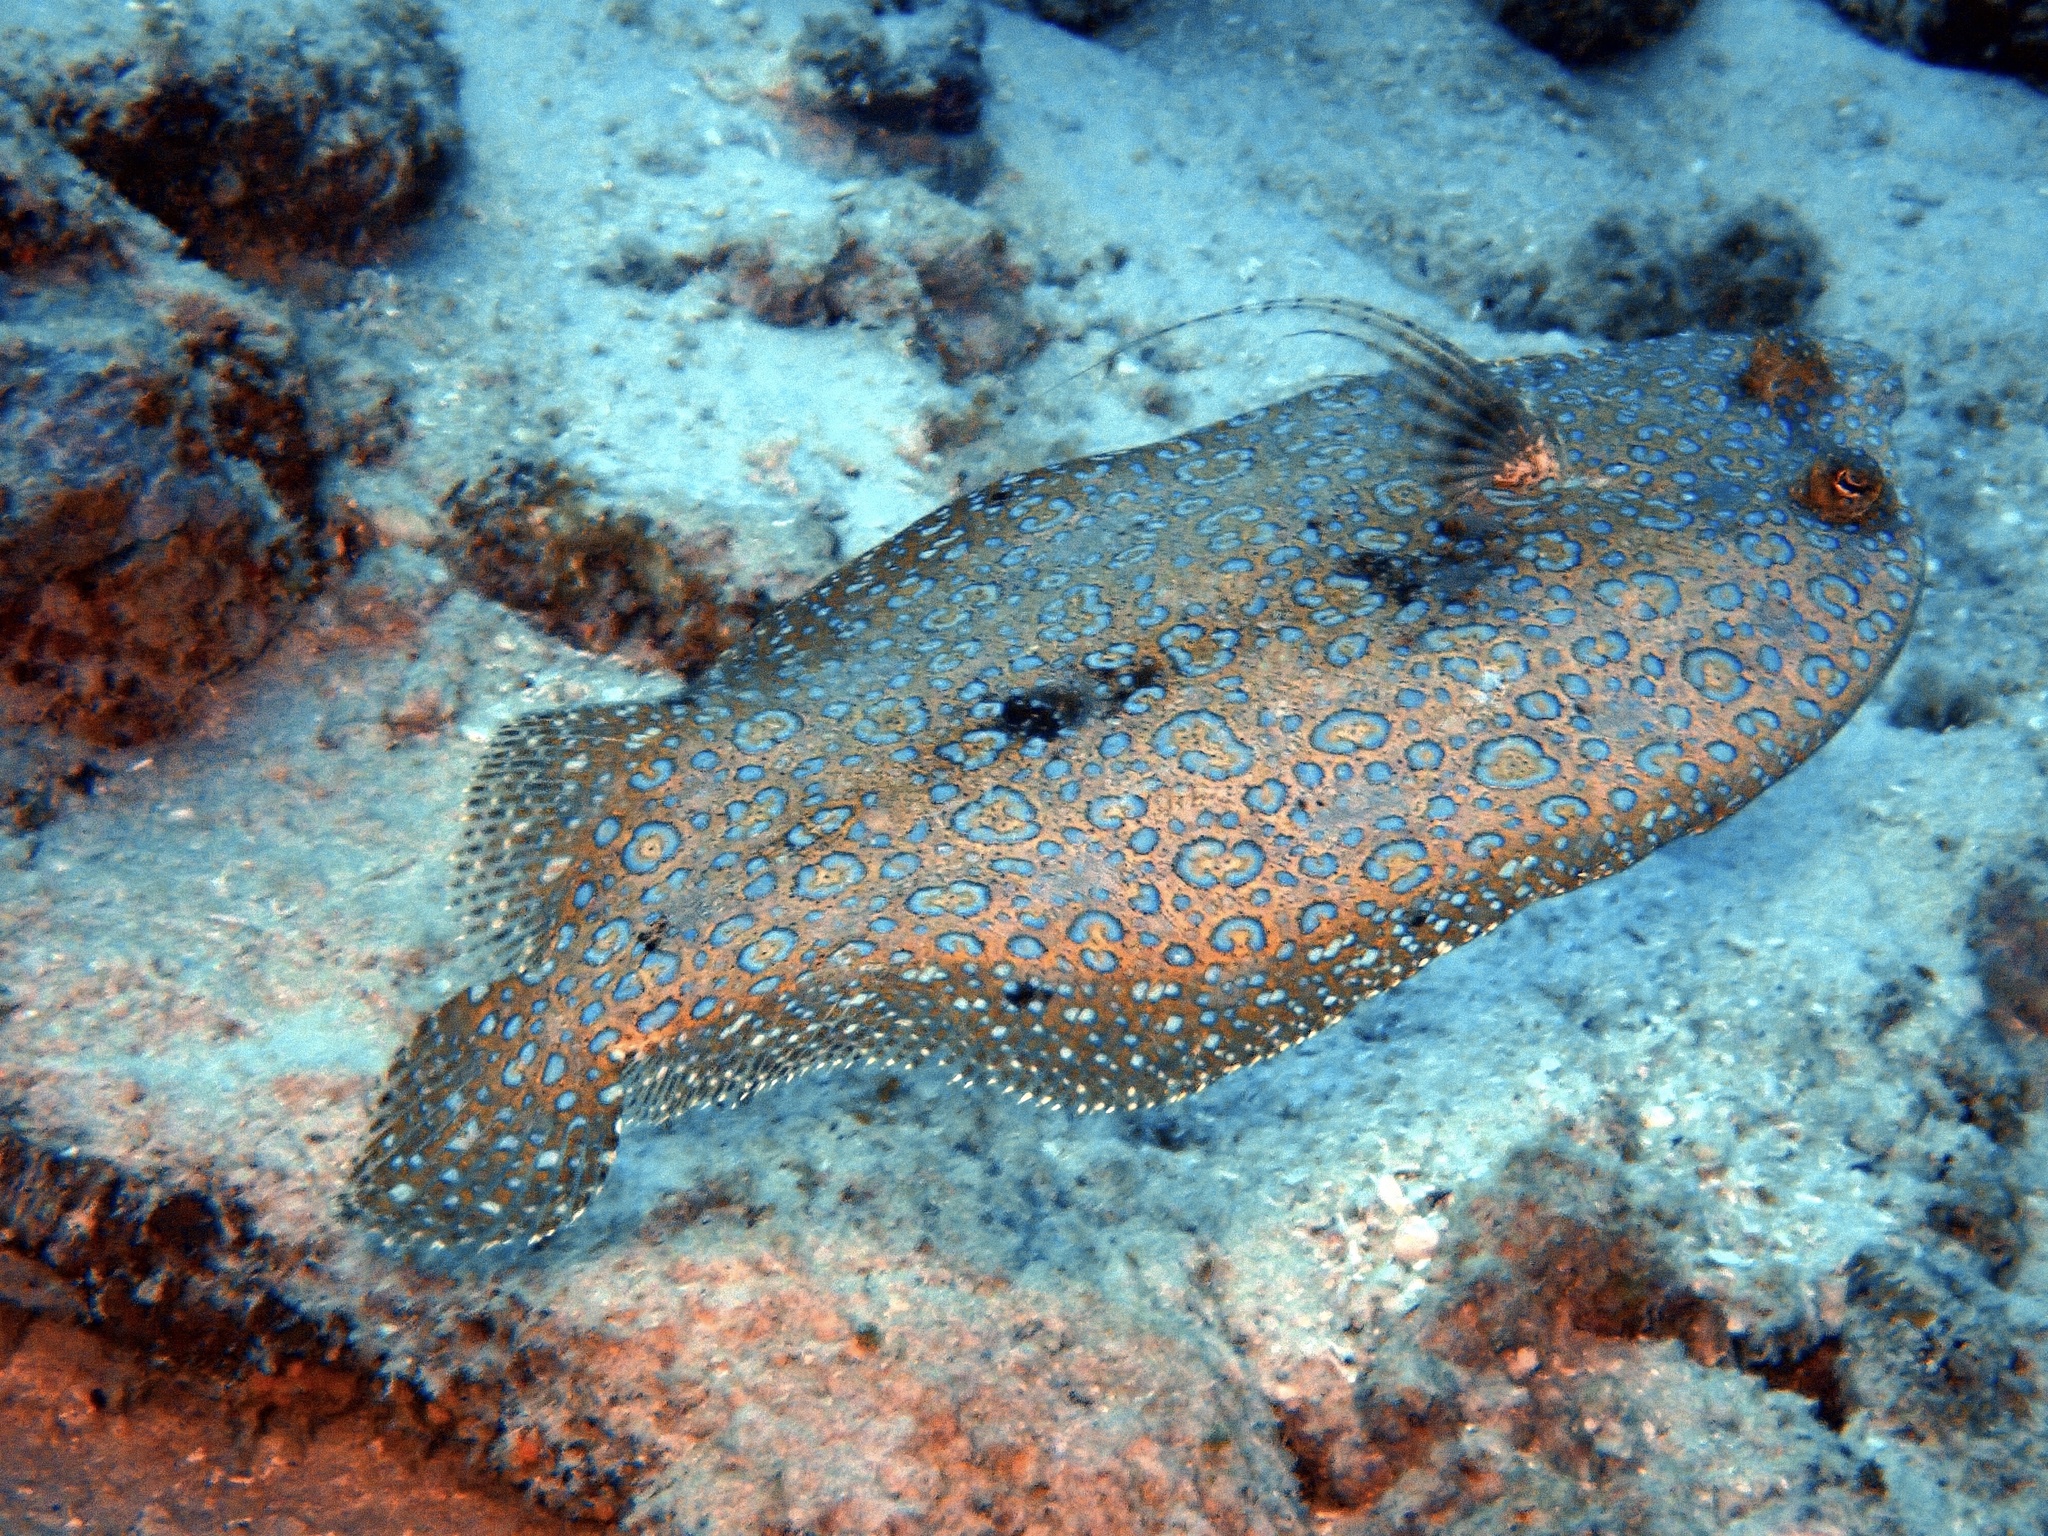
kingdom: Animalia
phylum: Chordata
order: Pleuronectiformes
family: Bothidae
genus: Bothus
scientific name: Bothus mancus
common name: Flowery flounder
